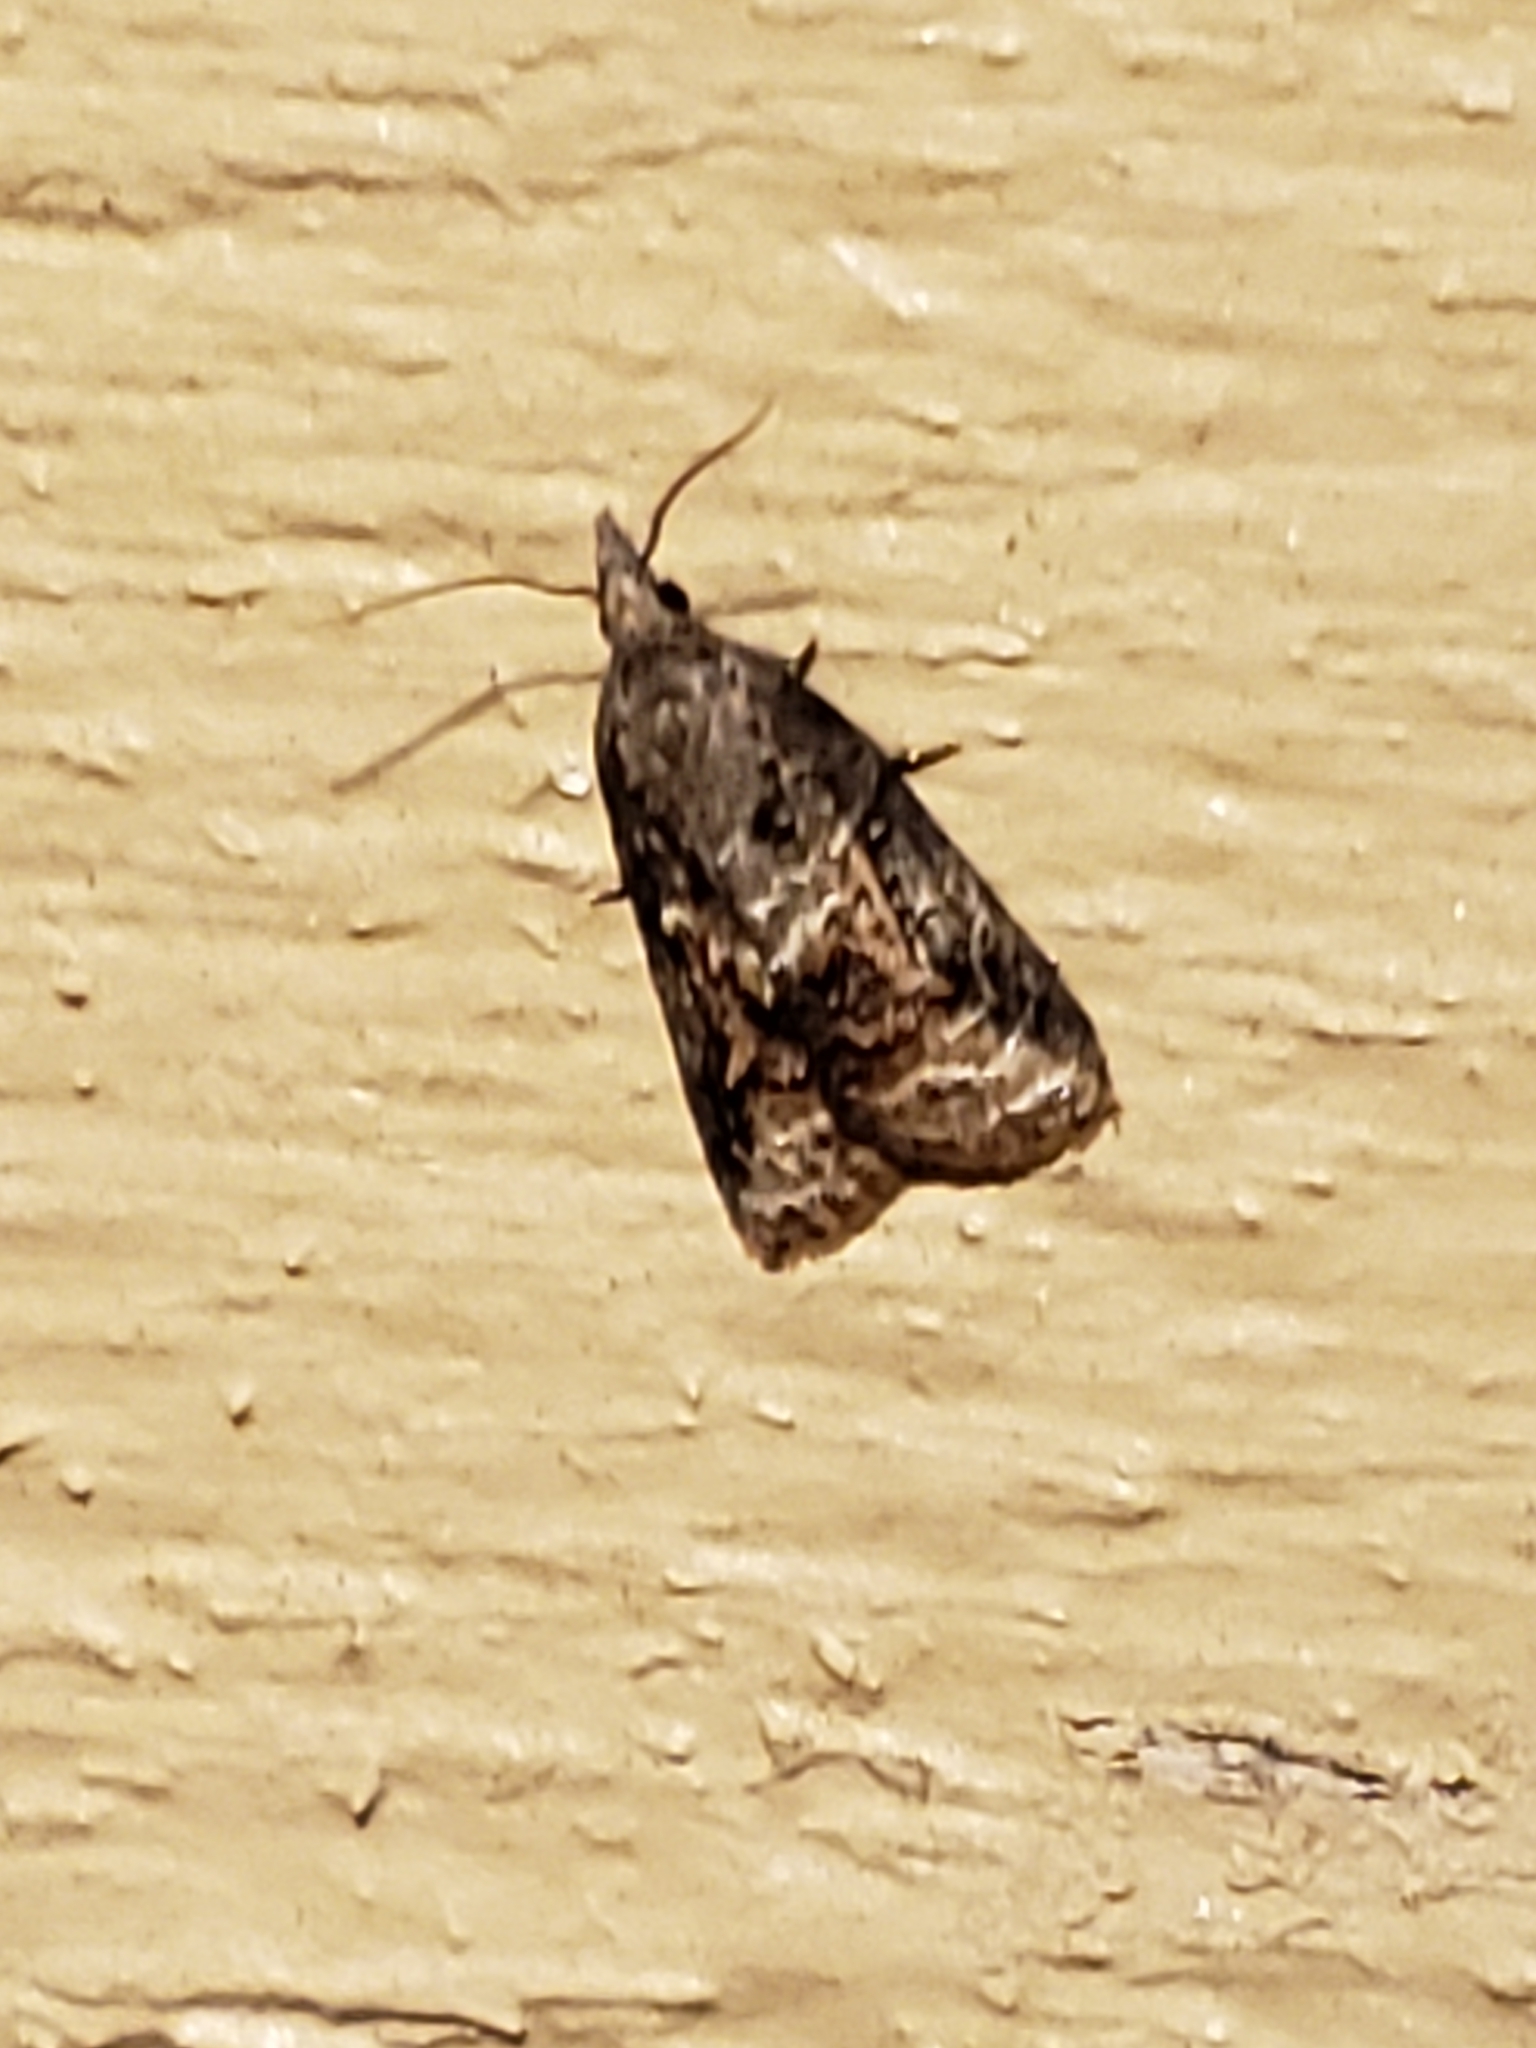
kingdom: Animalia
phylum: Arthropoda
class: Insecta
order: Lepidoptera
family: Tortricidae
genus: Platynota
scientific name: Platynota idaeusalis
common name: Tufted apple bud moth
